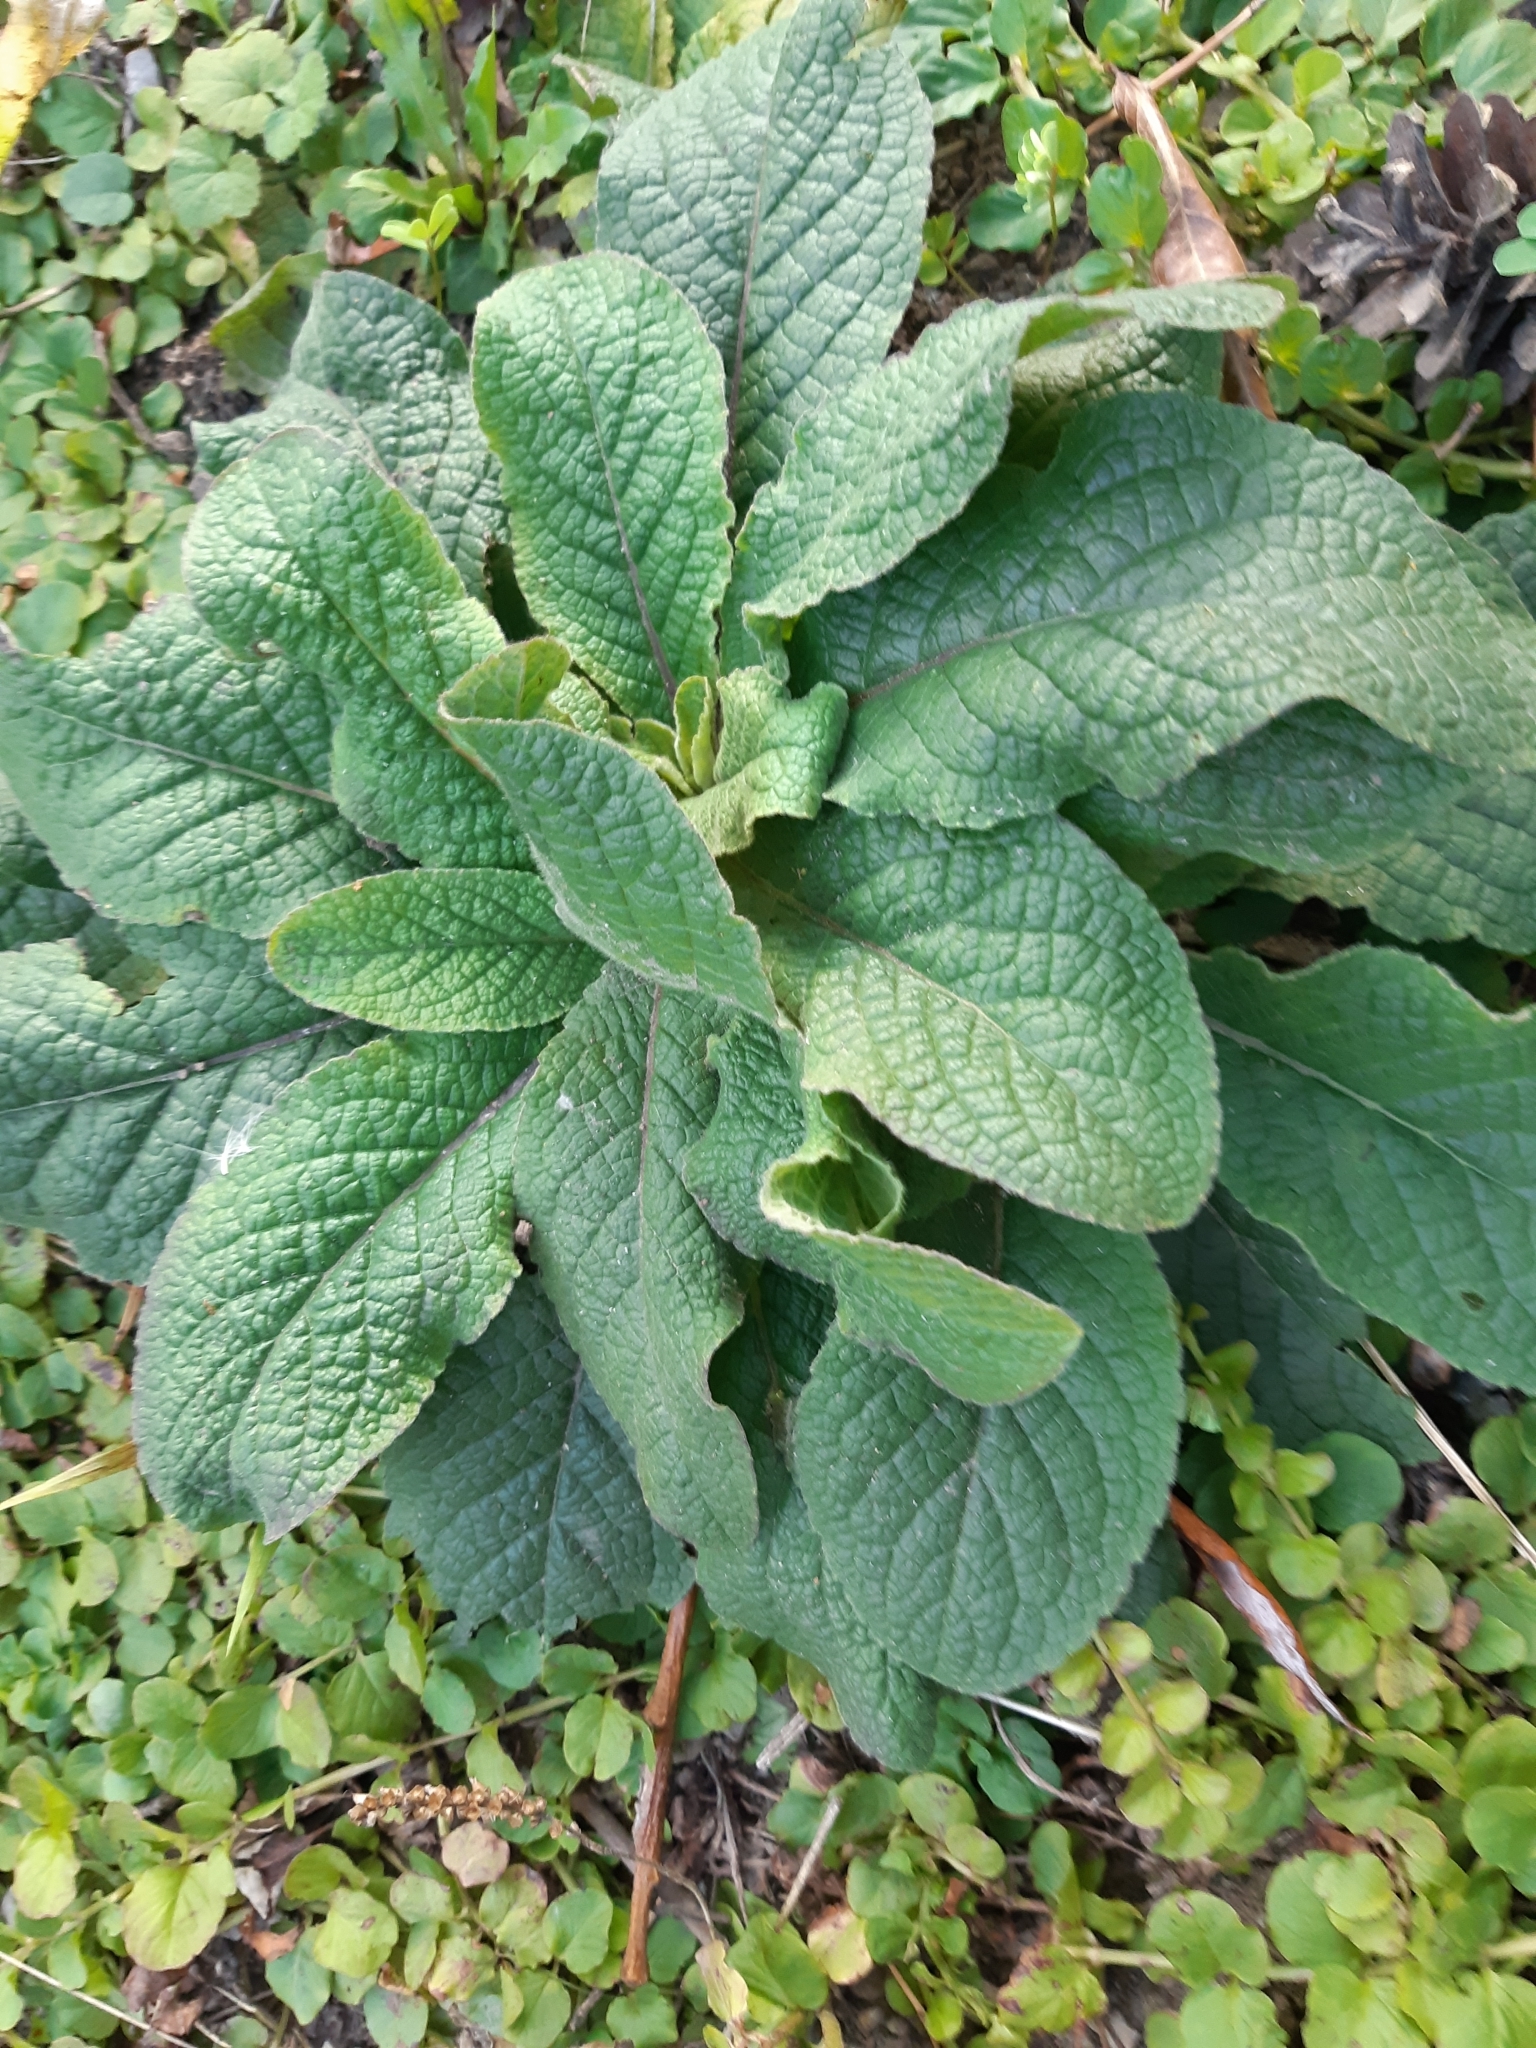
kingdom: Plantae
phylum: Tracheophyta
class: Magnoliopsida
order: Lamiales
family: Plantaginaceae
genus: Digitalis
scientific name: Digitalis purpurea
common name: Foxglove
